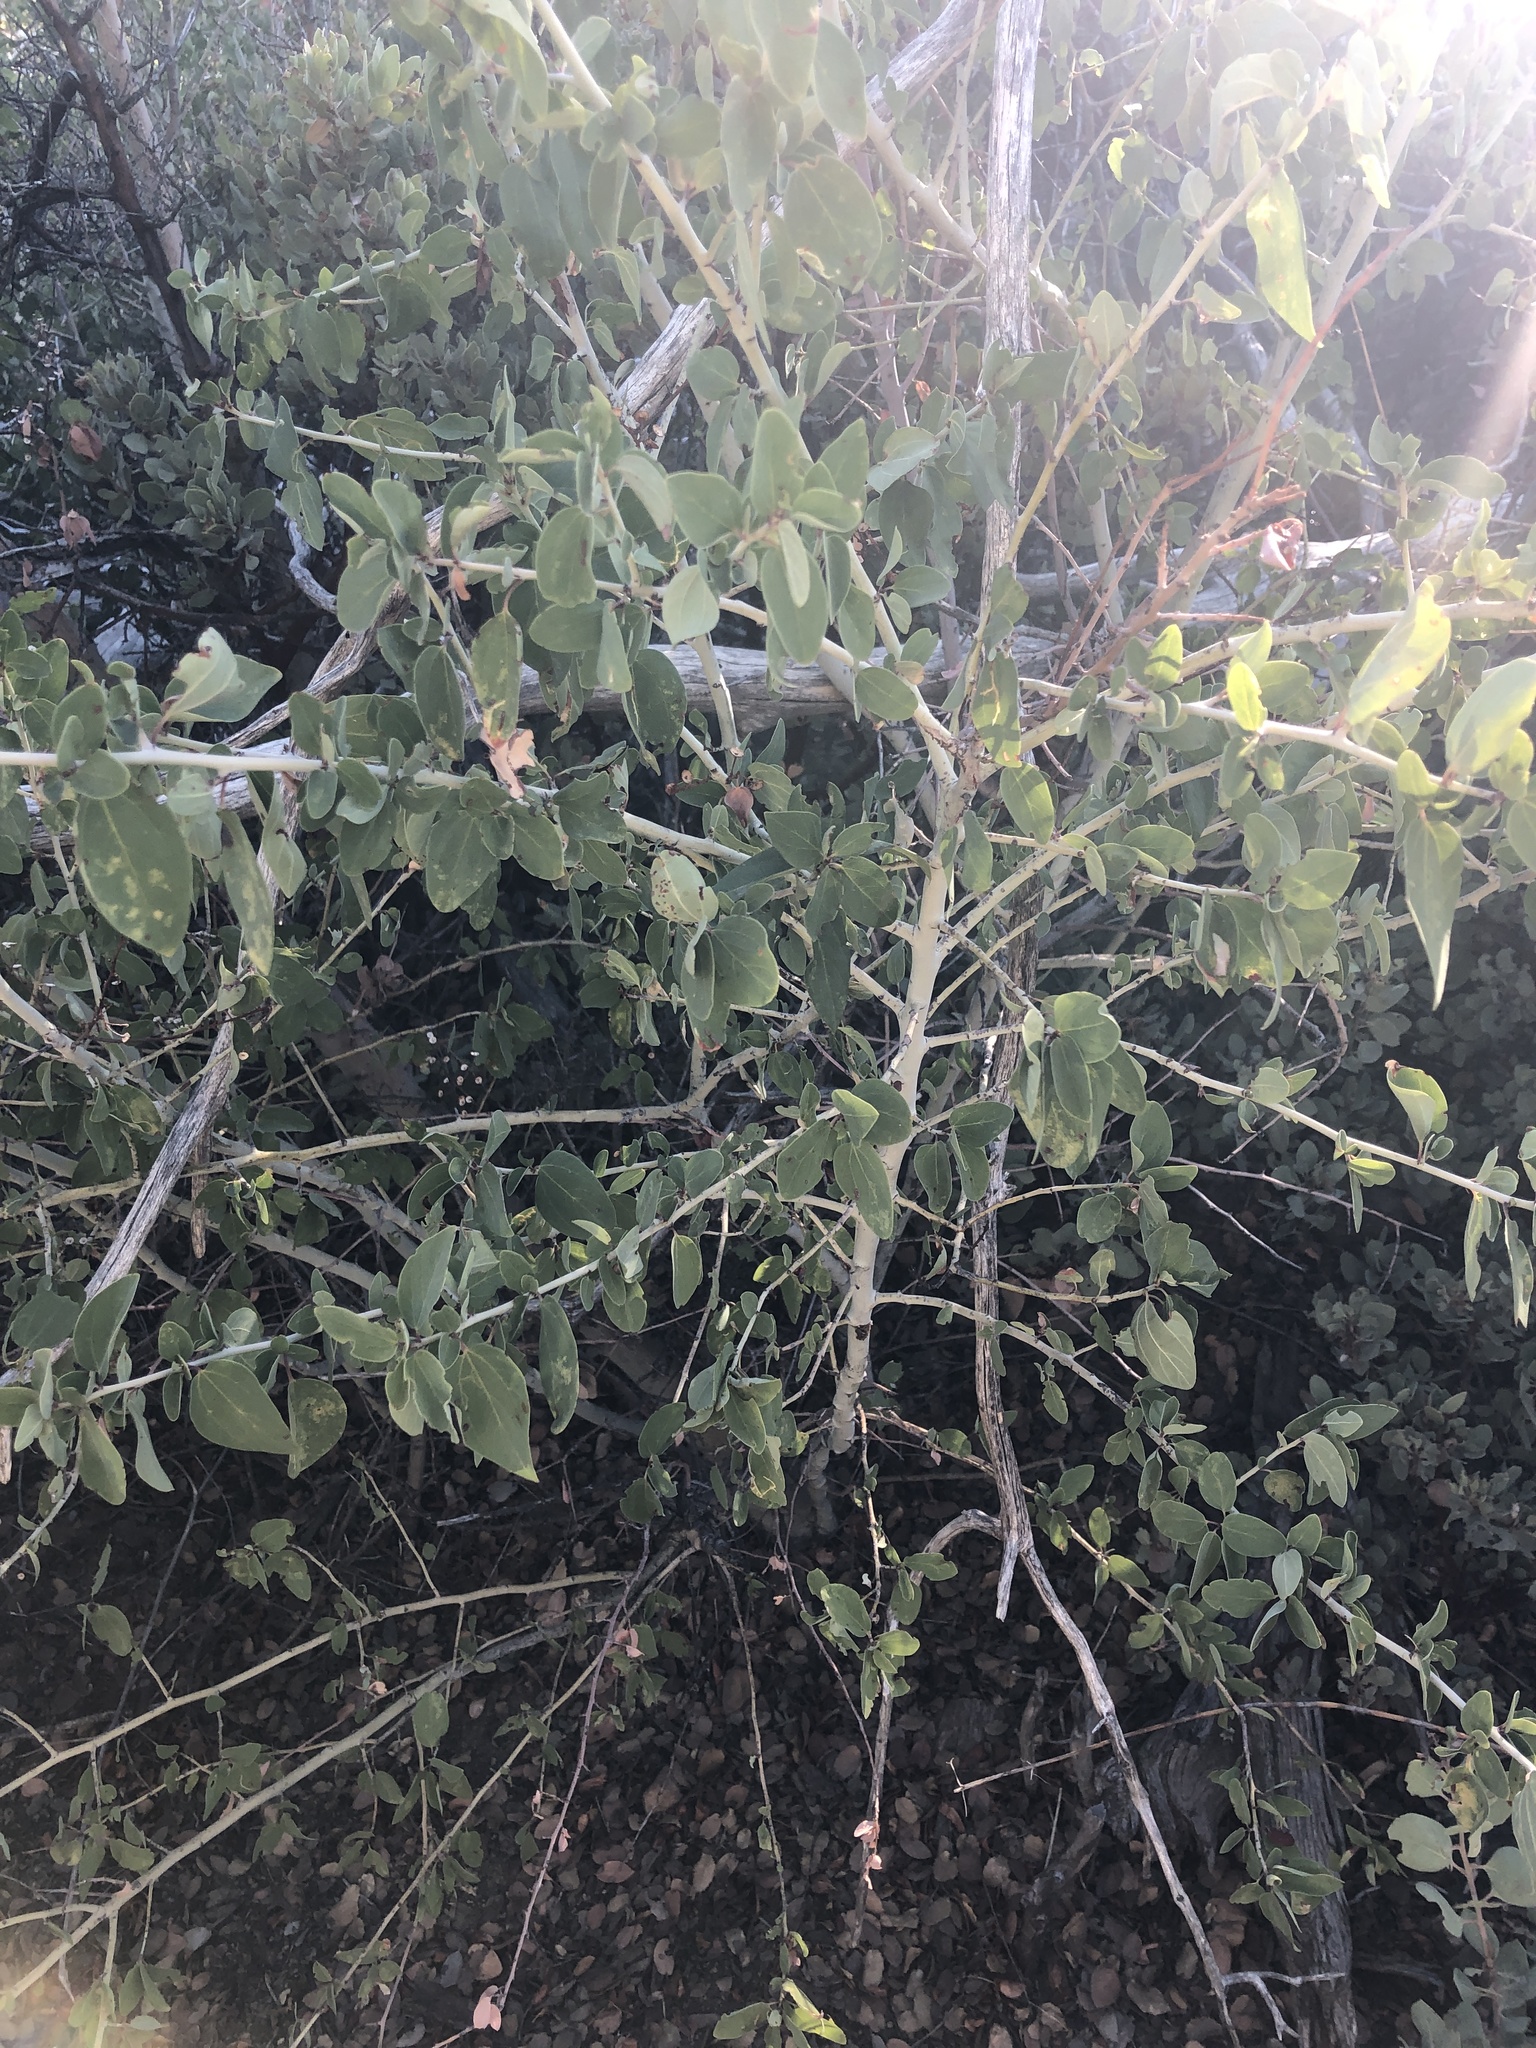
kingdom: Plantae
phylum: Tracheophyta
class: Magnoliopsida
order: Rosales
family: Rhamnaceae
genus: Ceanothus
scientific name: Ceanothus leucodermis
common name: Chaparral whitethorn
